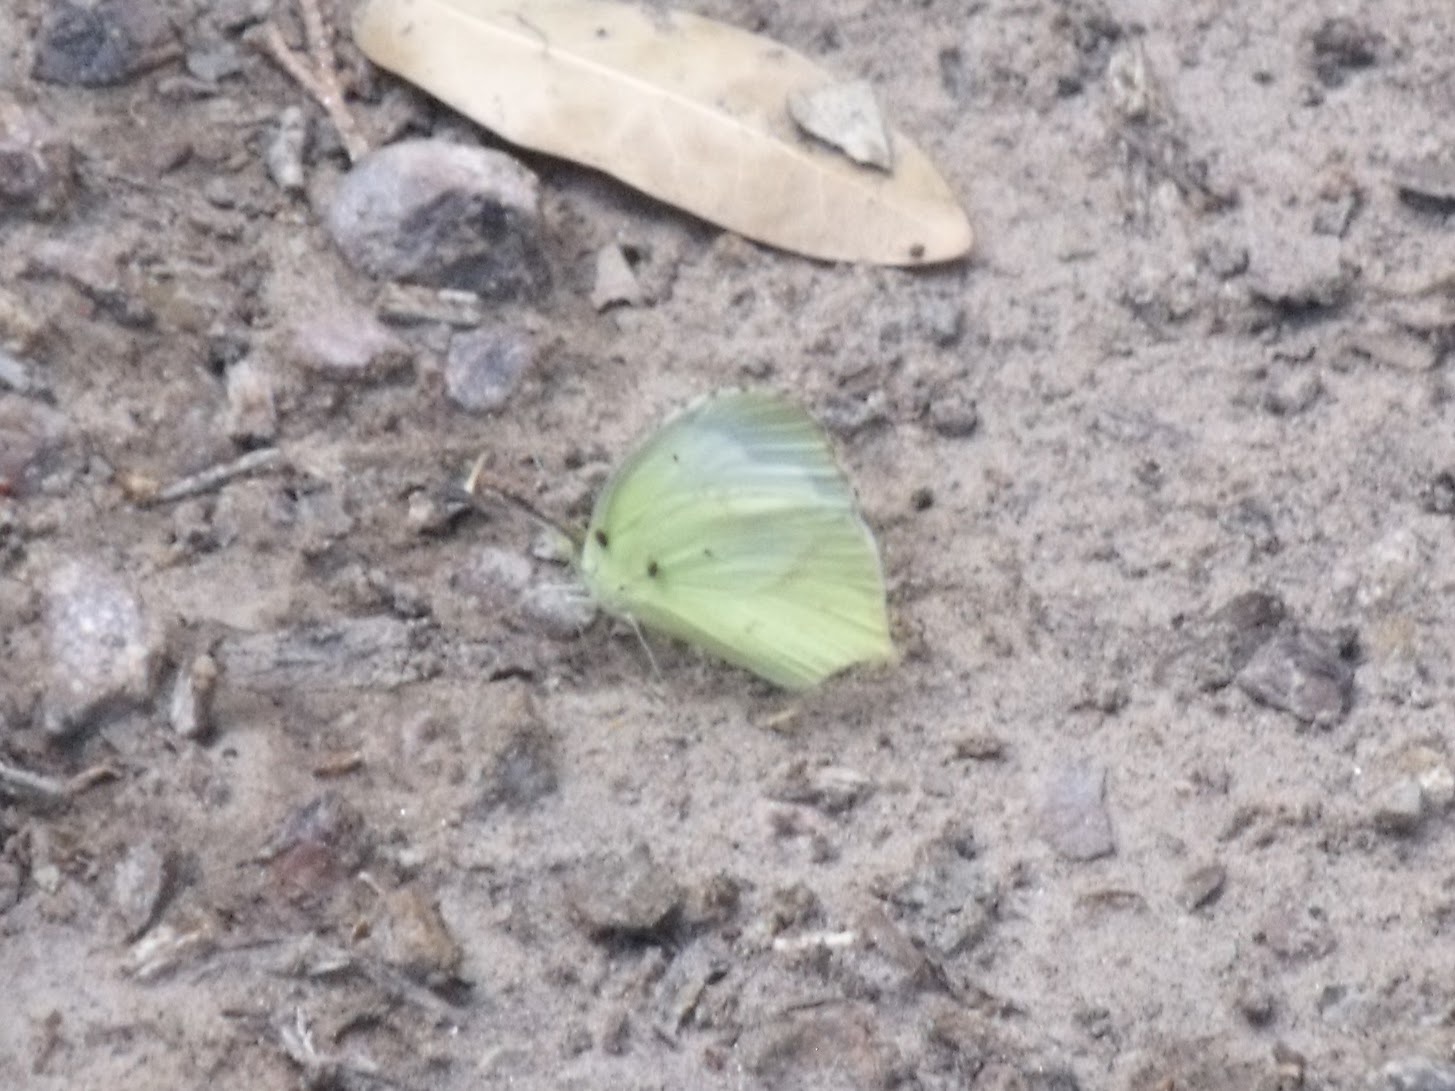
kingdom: Animalia
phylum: Arthropoda
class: Insecta
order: Lepidoptera
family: Pieridae
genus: Abaeis
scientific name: Abaeis mexicana
